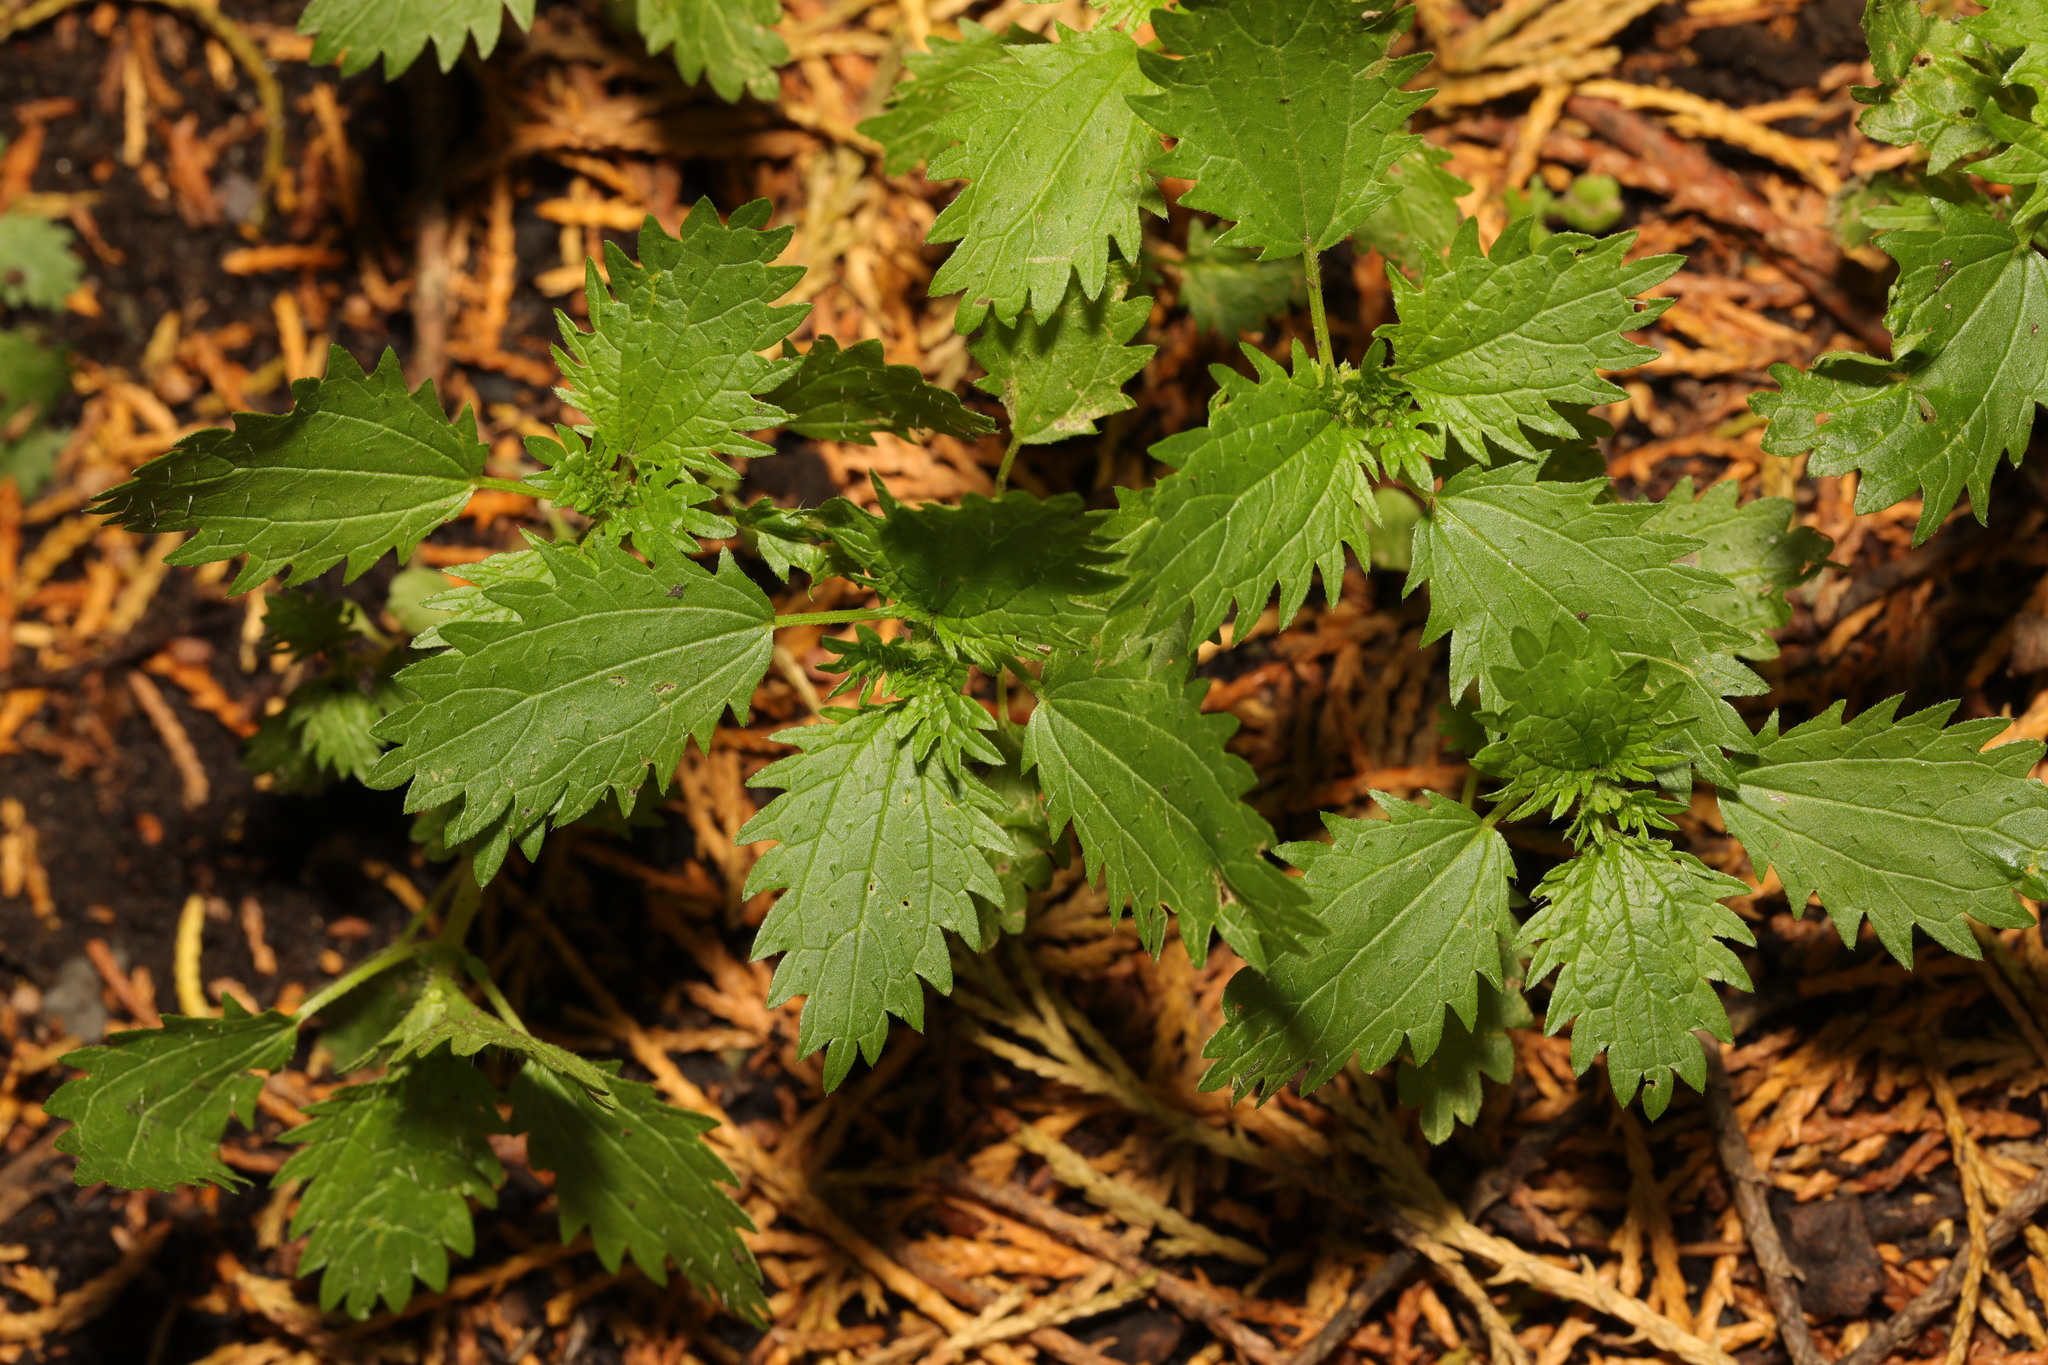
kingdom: Plantae
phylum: Tracheophyta
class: Magnoliopsida
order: Rosales
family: Urticaceae
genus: Urtica
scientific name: Urtica urens
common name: Dwarf nettle
